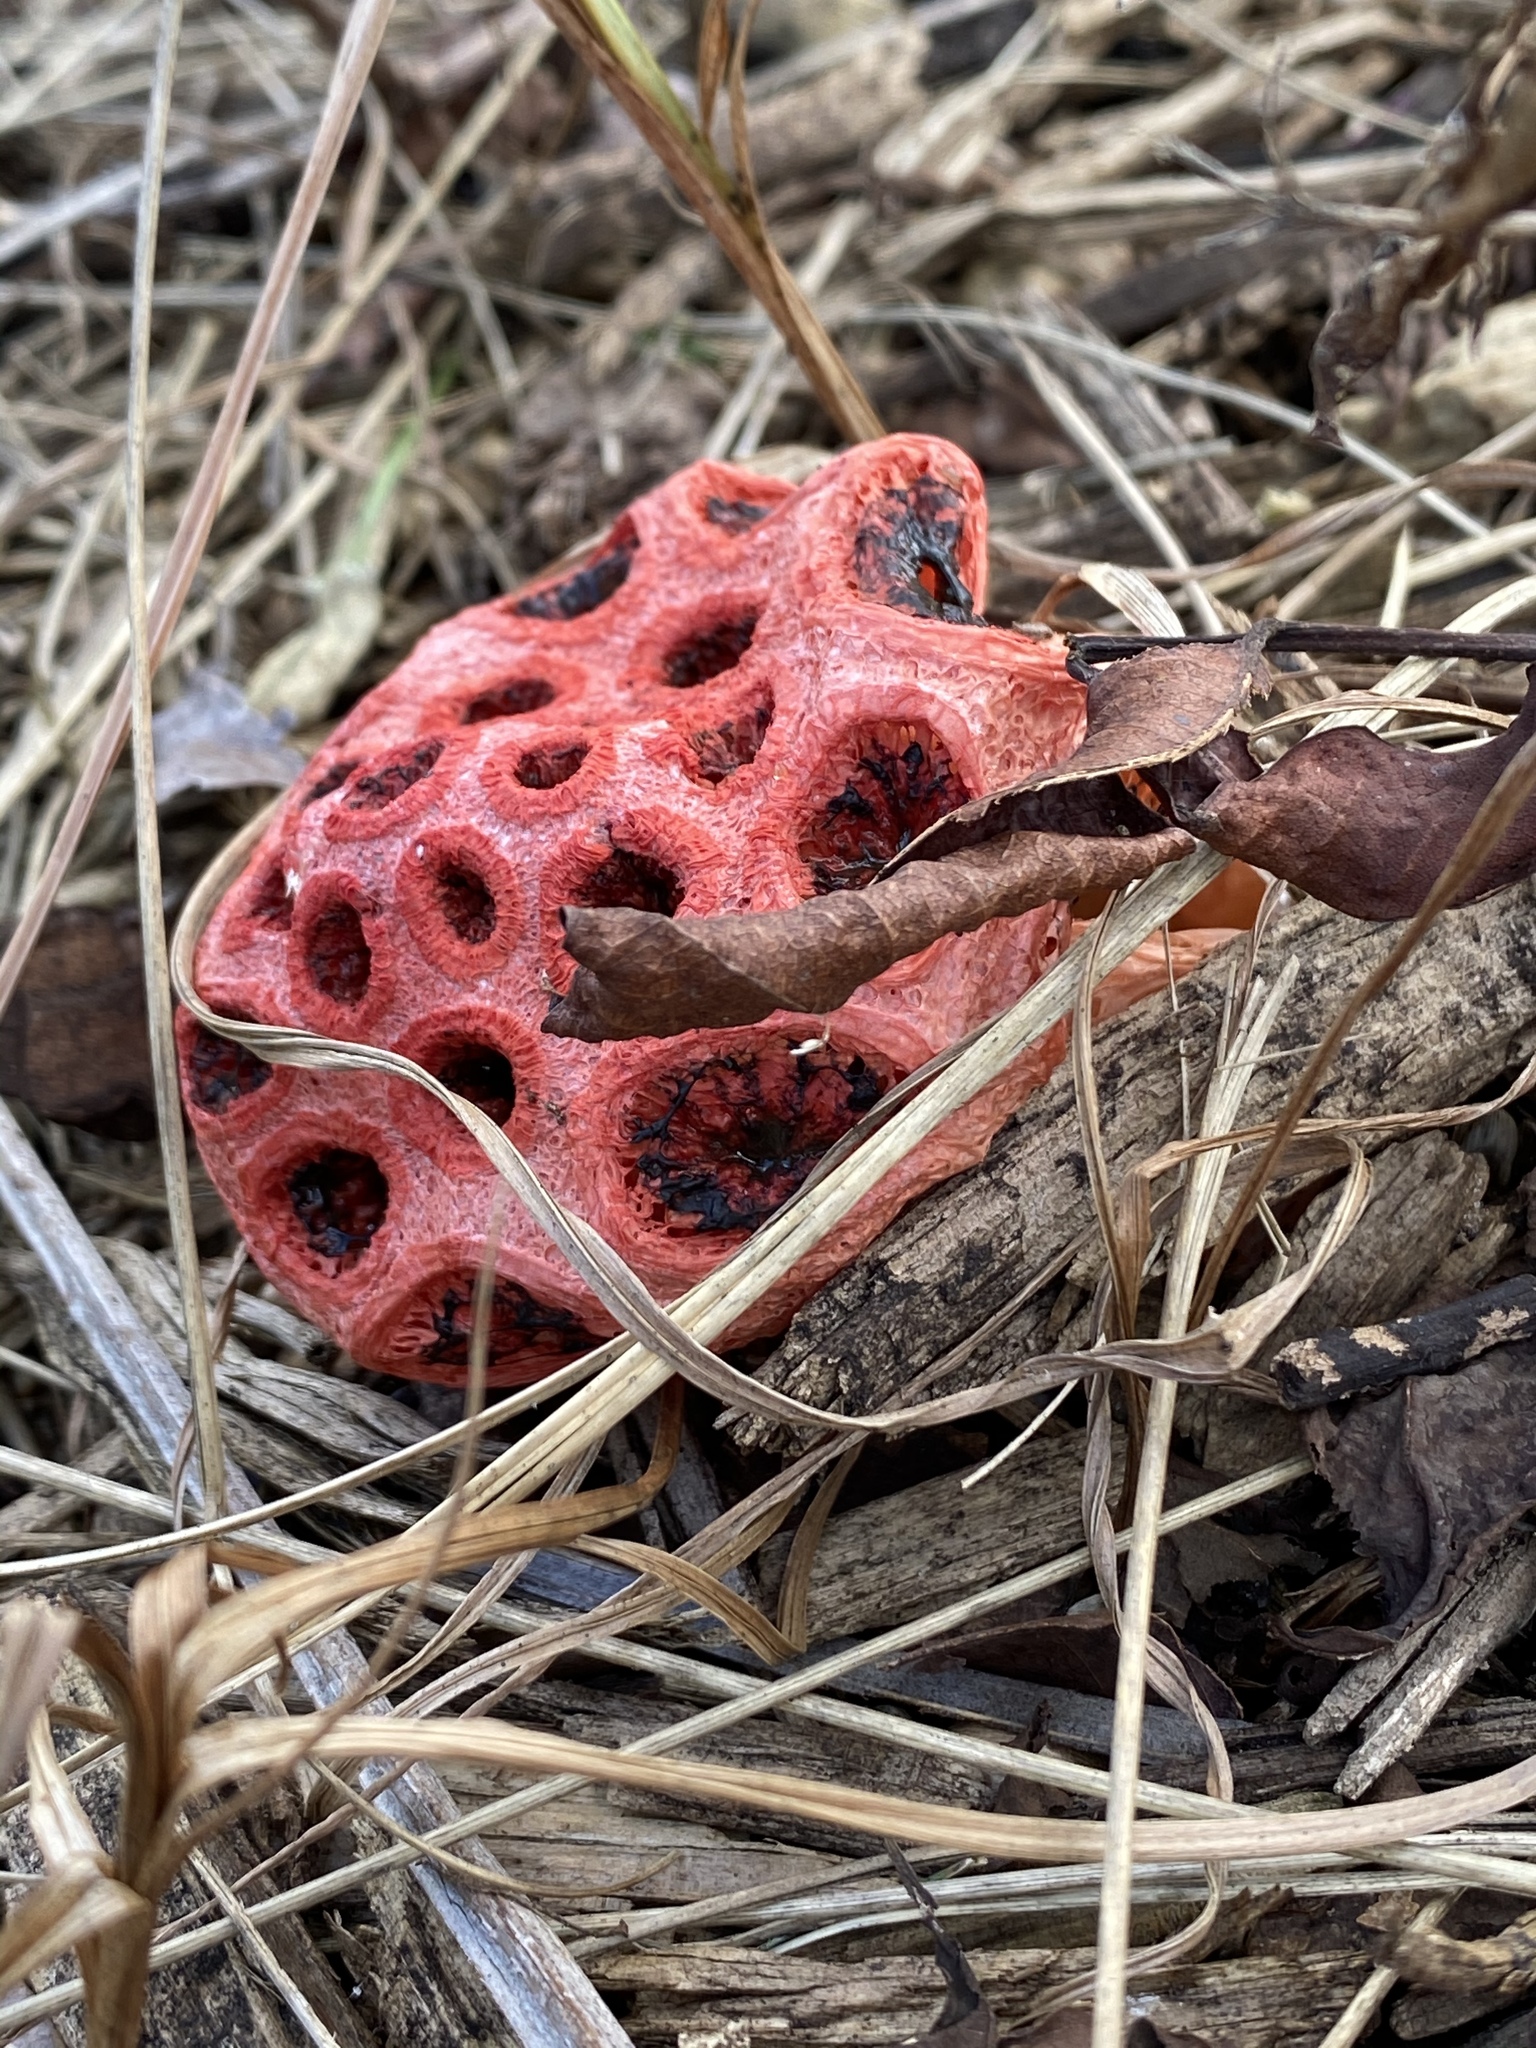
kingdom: Fungi
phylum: Basidiomycota
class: Agaricomycetes
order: Phallales
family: Phallaceae
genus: Clathrus
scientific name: Clathrus crispatus
